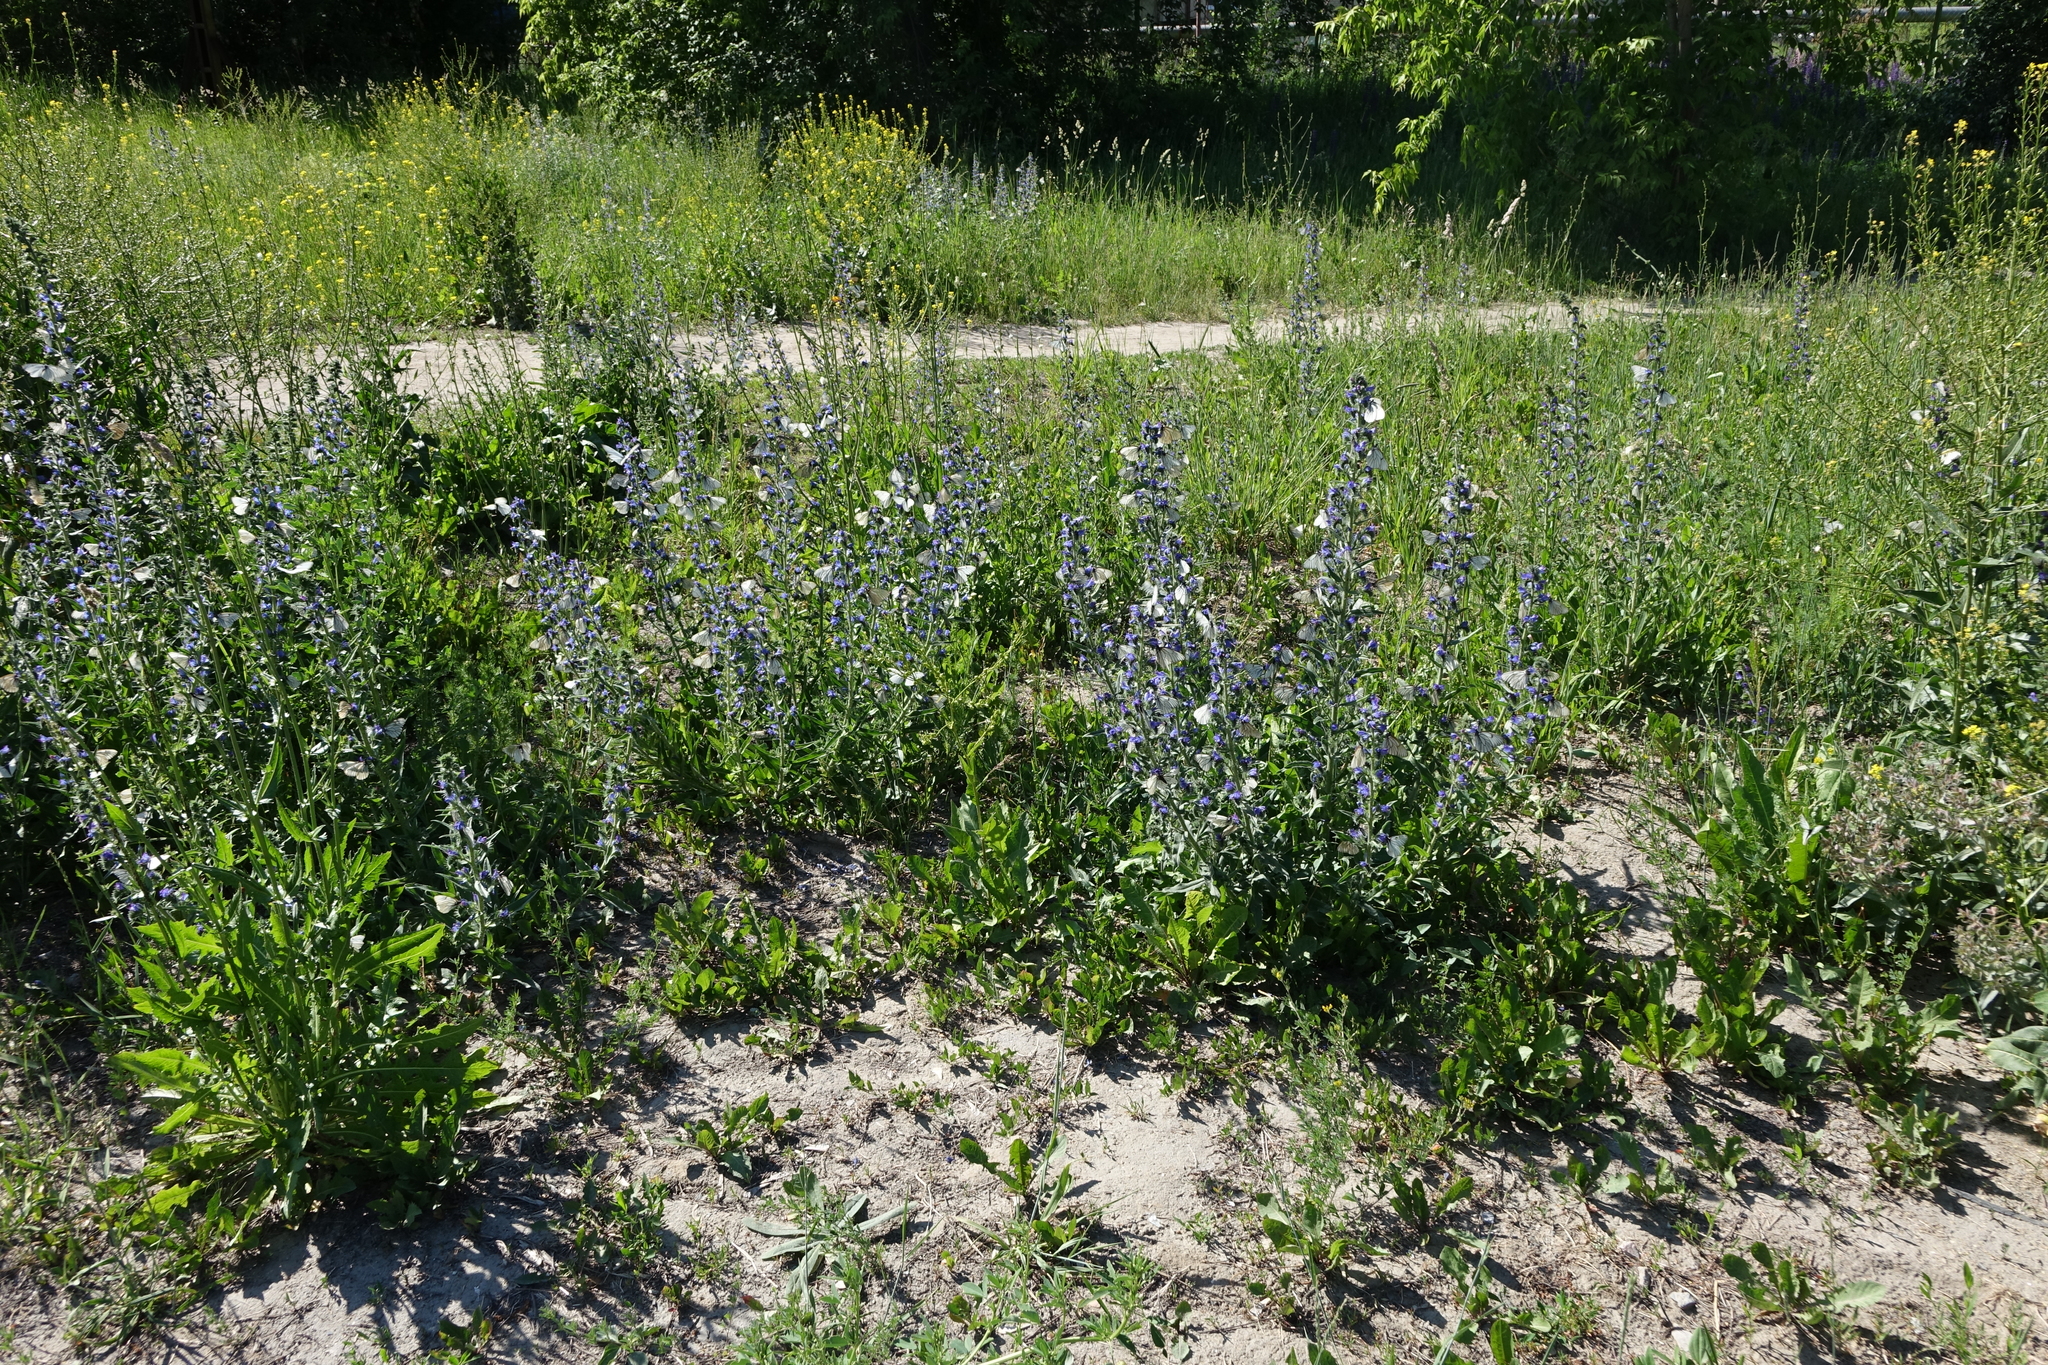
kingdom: Plantae
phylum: Tracheophyta
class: Magnoliopsida
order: Boraginales
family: Boraginaceae
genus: Echium
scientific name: Echium vulgare
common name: Common viper's bugloss
